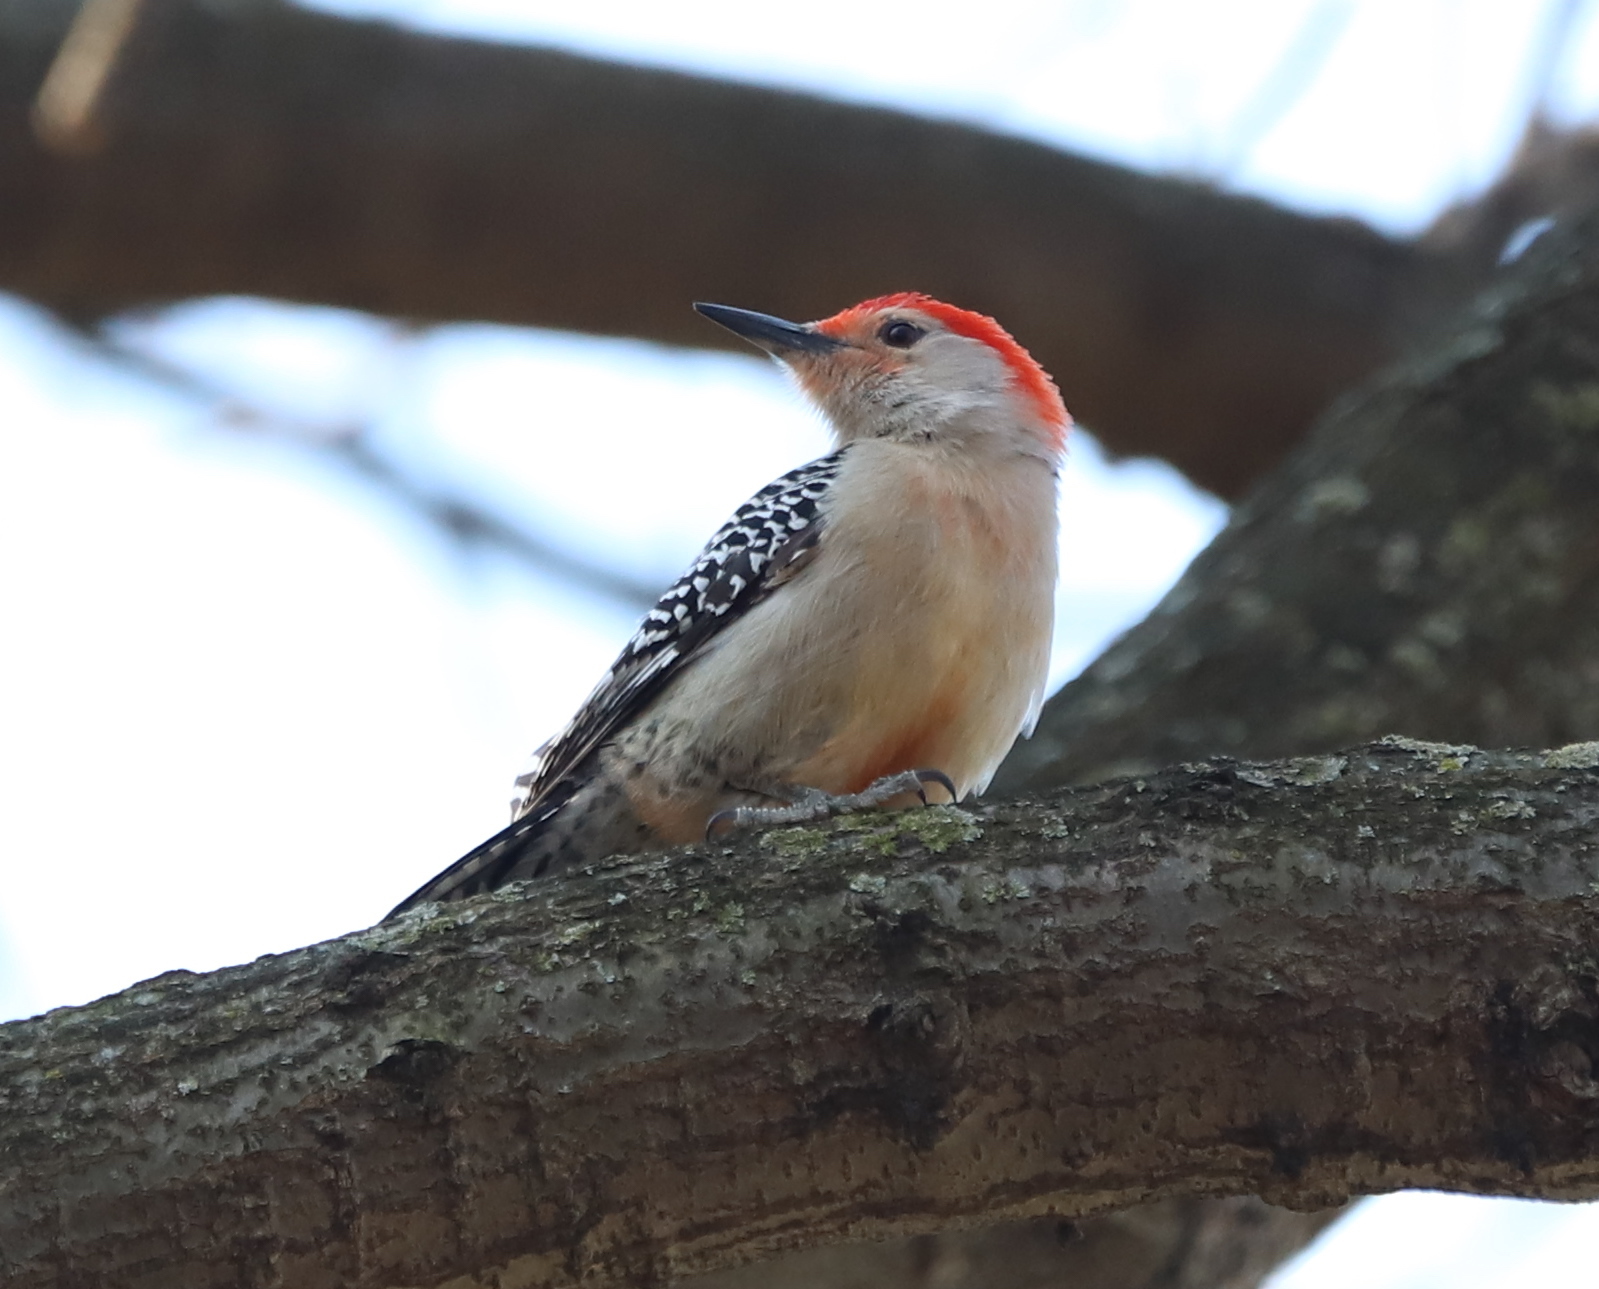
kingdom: Animalia
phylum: Chordata
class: Aves
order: Piciformes
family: Picidae
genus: Melanerpes
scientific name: Melanerpes carolinus
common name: Red-bellied woodpecker
